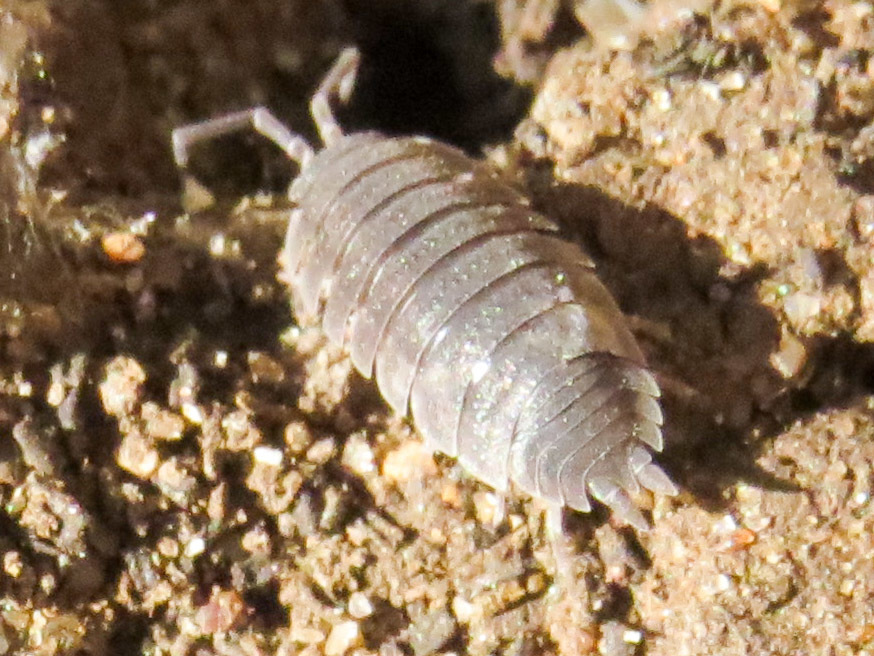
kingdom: Animalia
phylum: Arthropoda
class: Malacostraca
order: Isopoda
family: Porcellionidae
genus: Porcellio
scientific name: Porcellio scaber
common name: Common rough woodlouse
